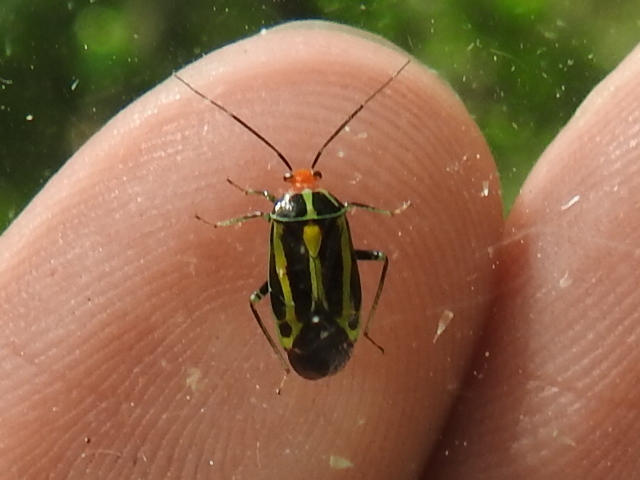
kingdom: Animalia
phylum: Arthropoda
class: Insecta
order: Hemiptera
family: Miridae
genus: Poecilocapsus
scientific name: Poecilocapsus lineatus
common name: Four-lined plant bug
